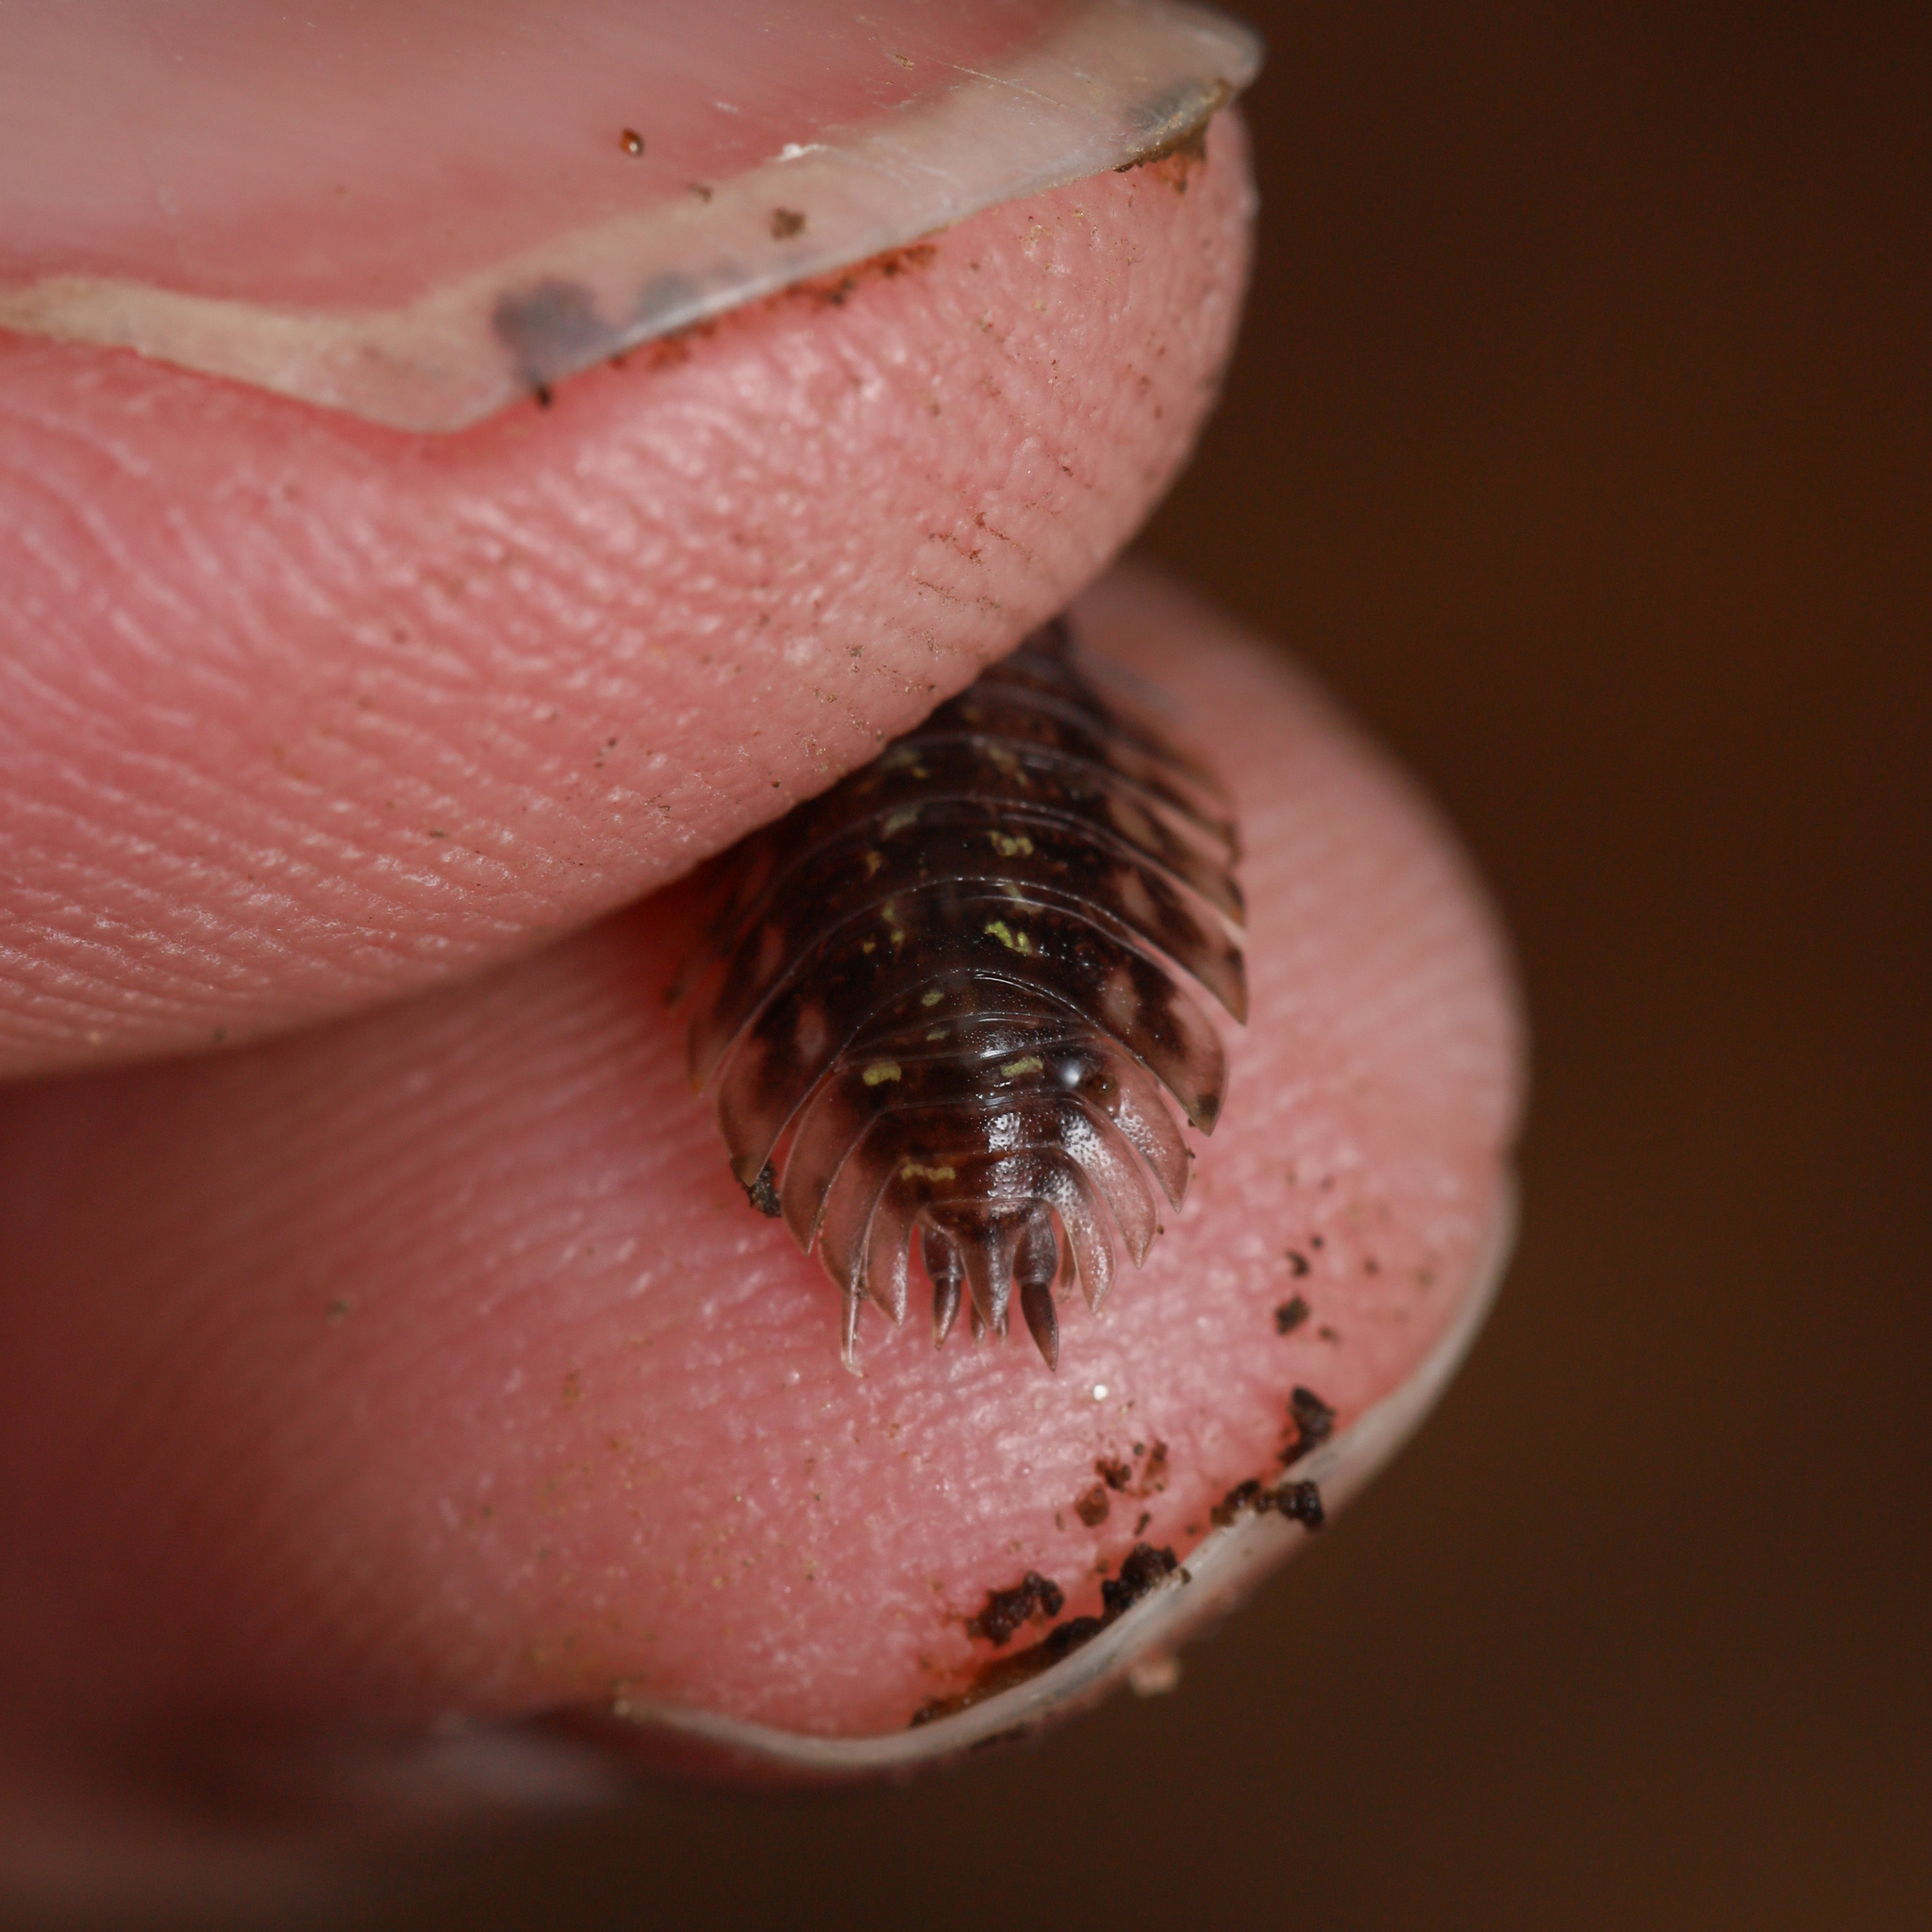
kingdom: Animalia
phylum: Arthropoda
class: Malacostraca
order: Isopoda
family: Oniscidae
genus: Oniscus
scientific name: Oniscus asellus
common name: Common shiny woodlouse
